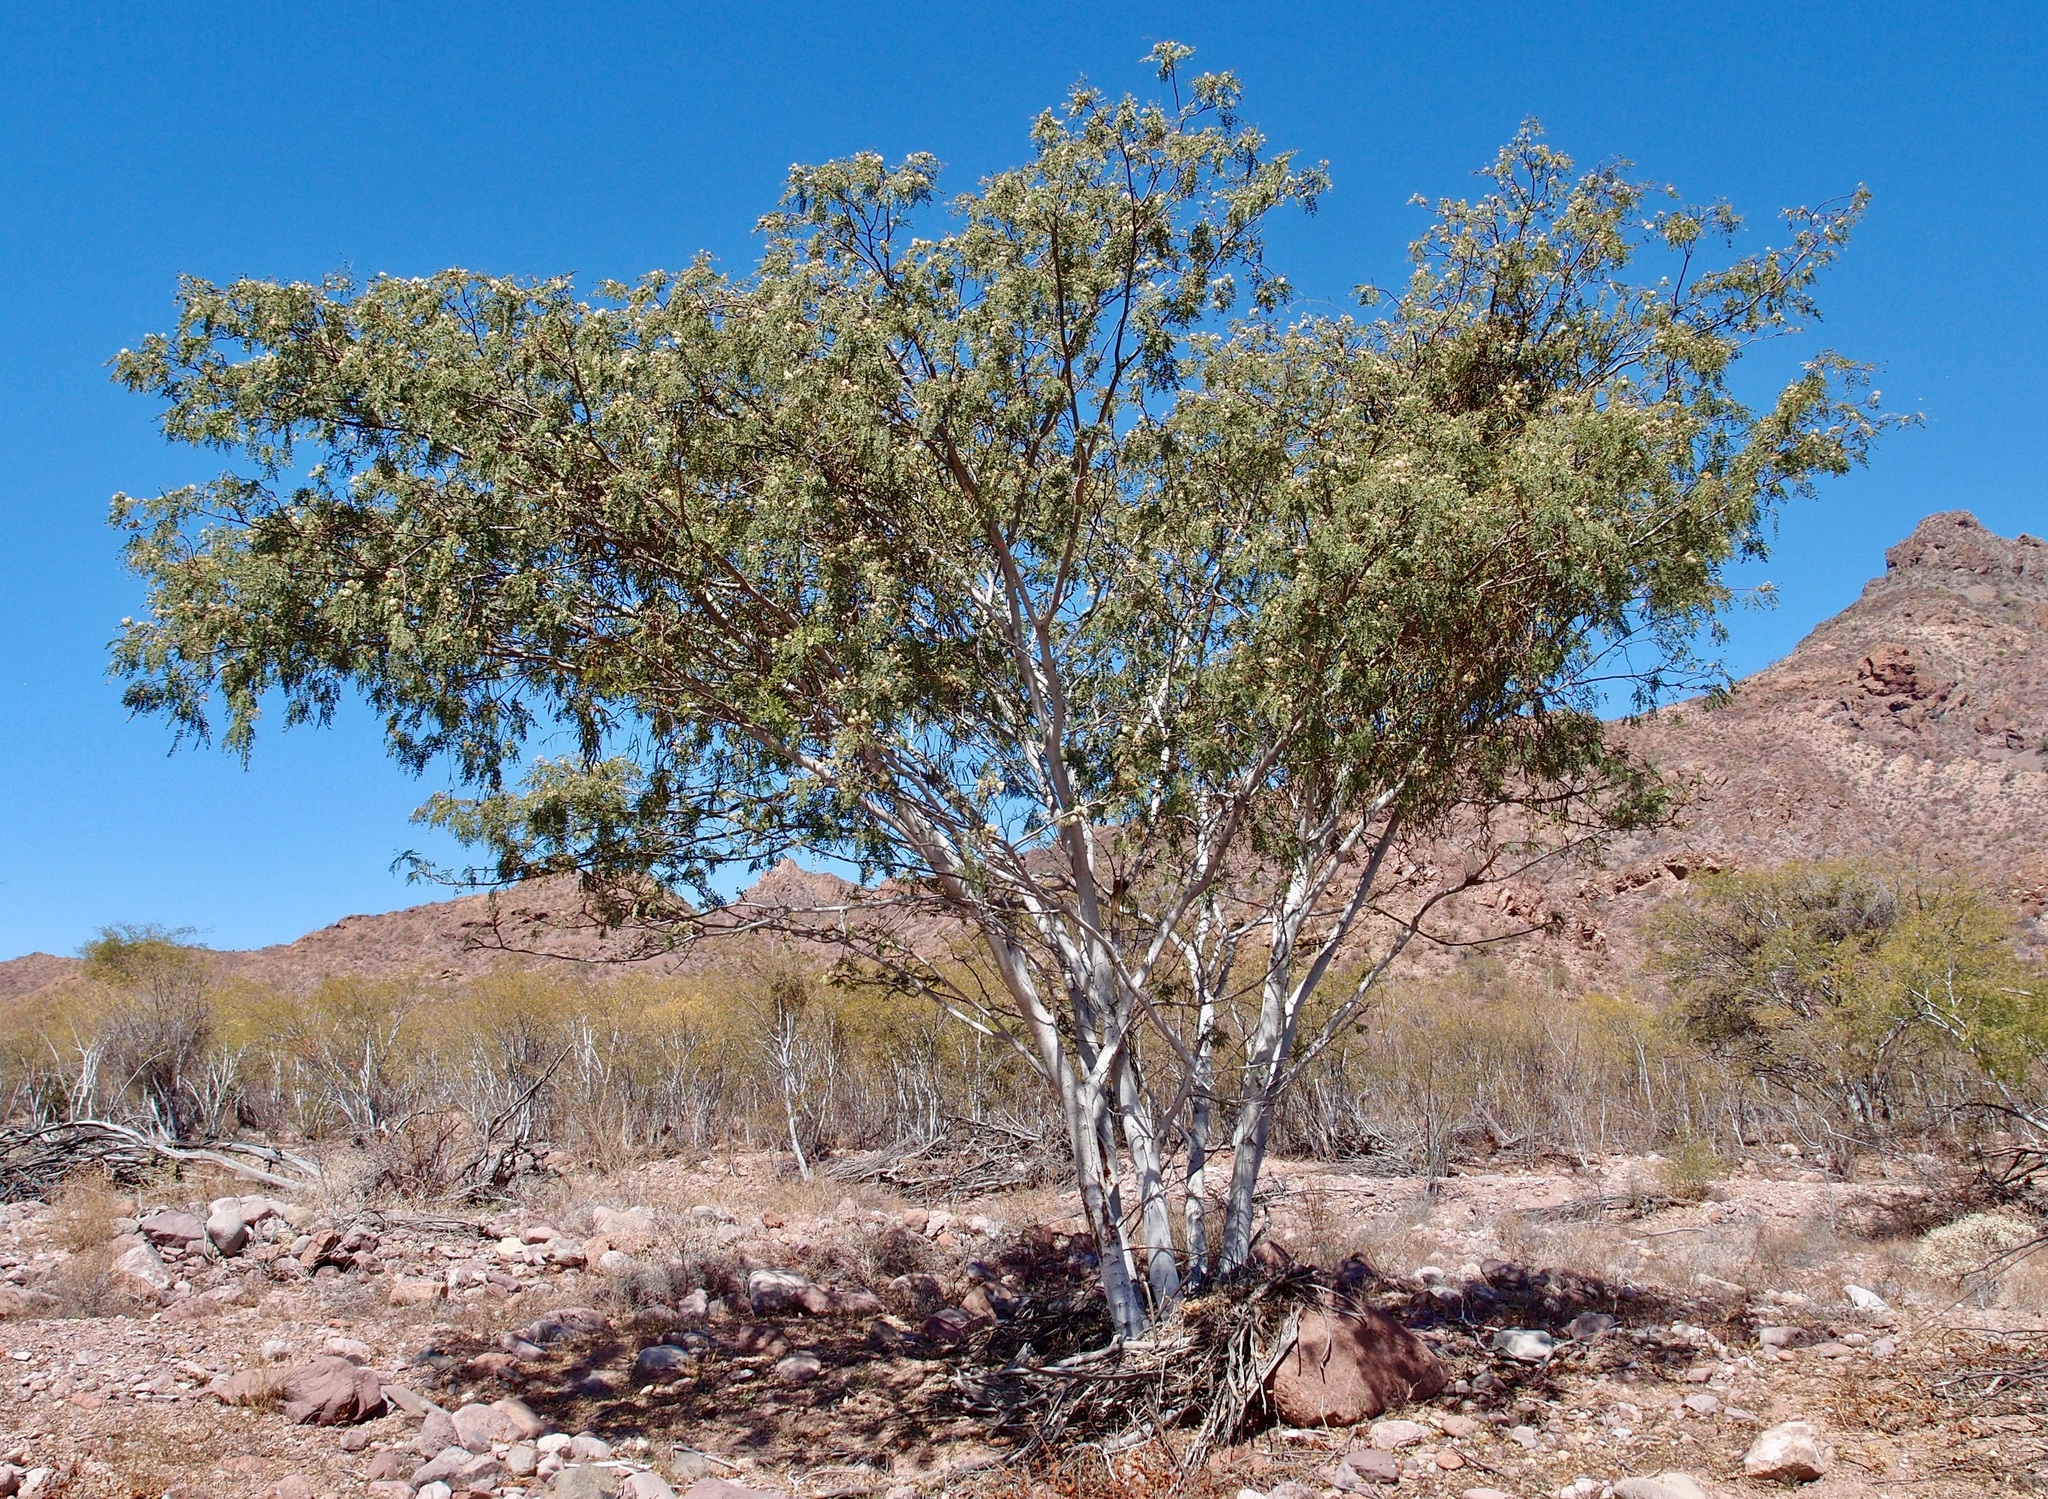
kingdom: Plantae
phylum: Tracheophyta
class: Magnoliopsida
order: Fabales
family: Fabaceae
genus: Lysiloma
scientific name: Lysiloma candidum
